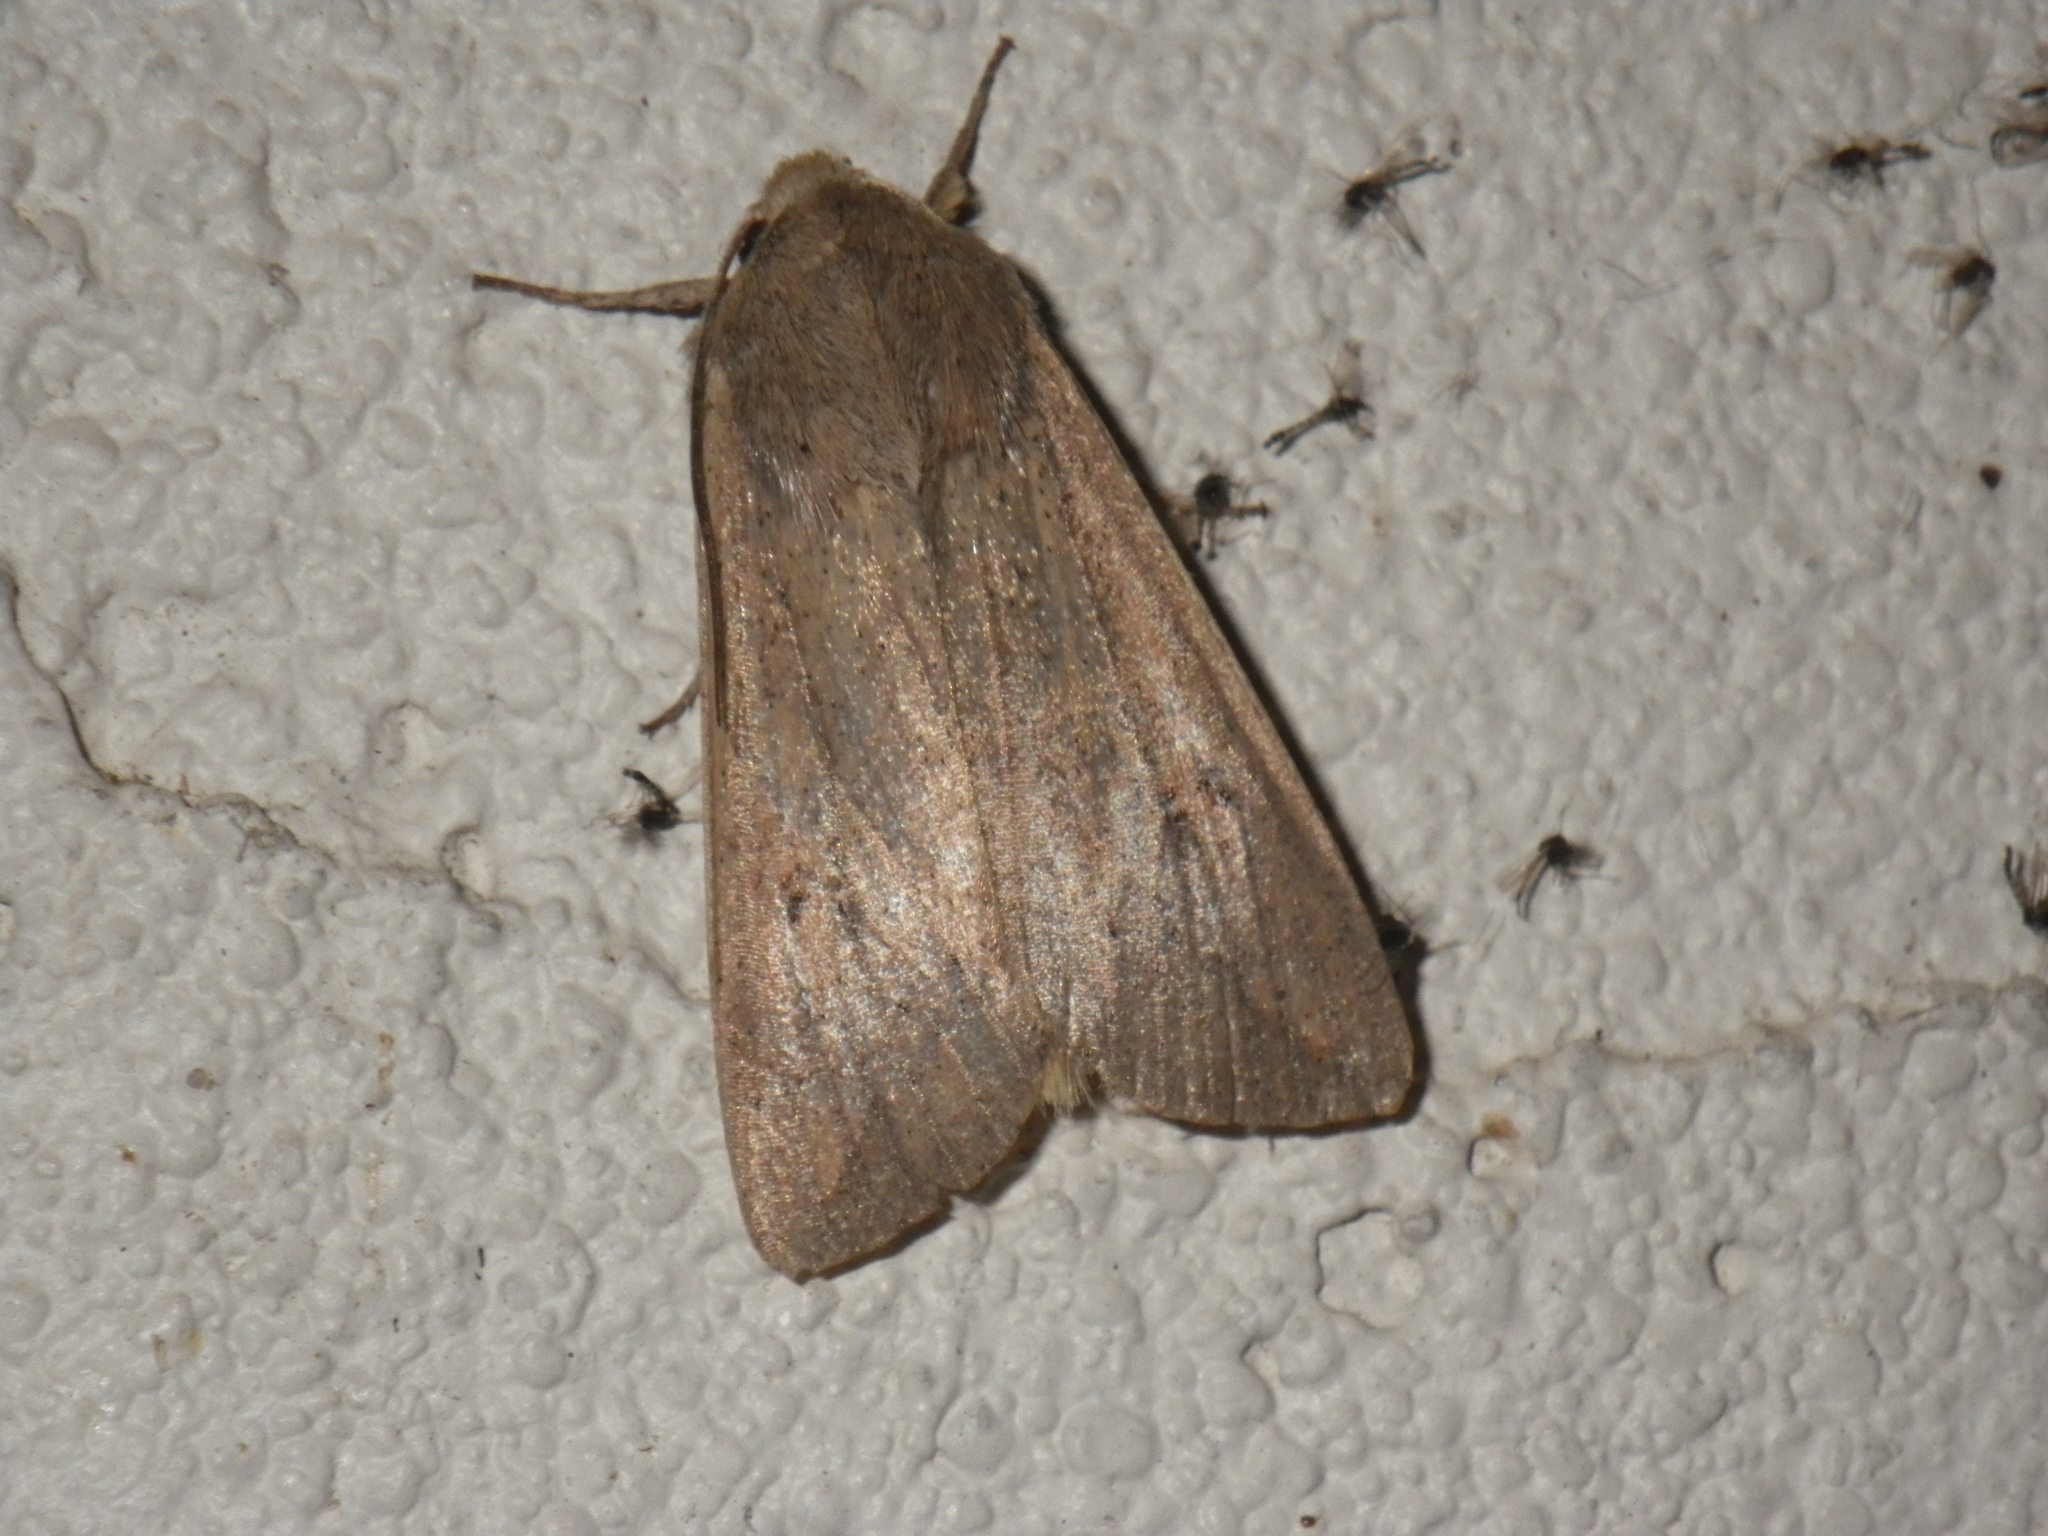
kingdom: Animalia
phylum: Arthropoda
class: Insecta
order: Lepidoptera
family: Noctuidae
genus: Mythimna
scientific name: Mythimna unipuncta
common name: White-speck
